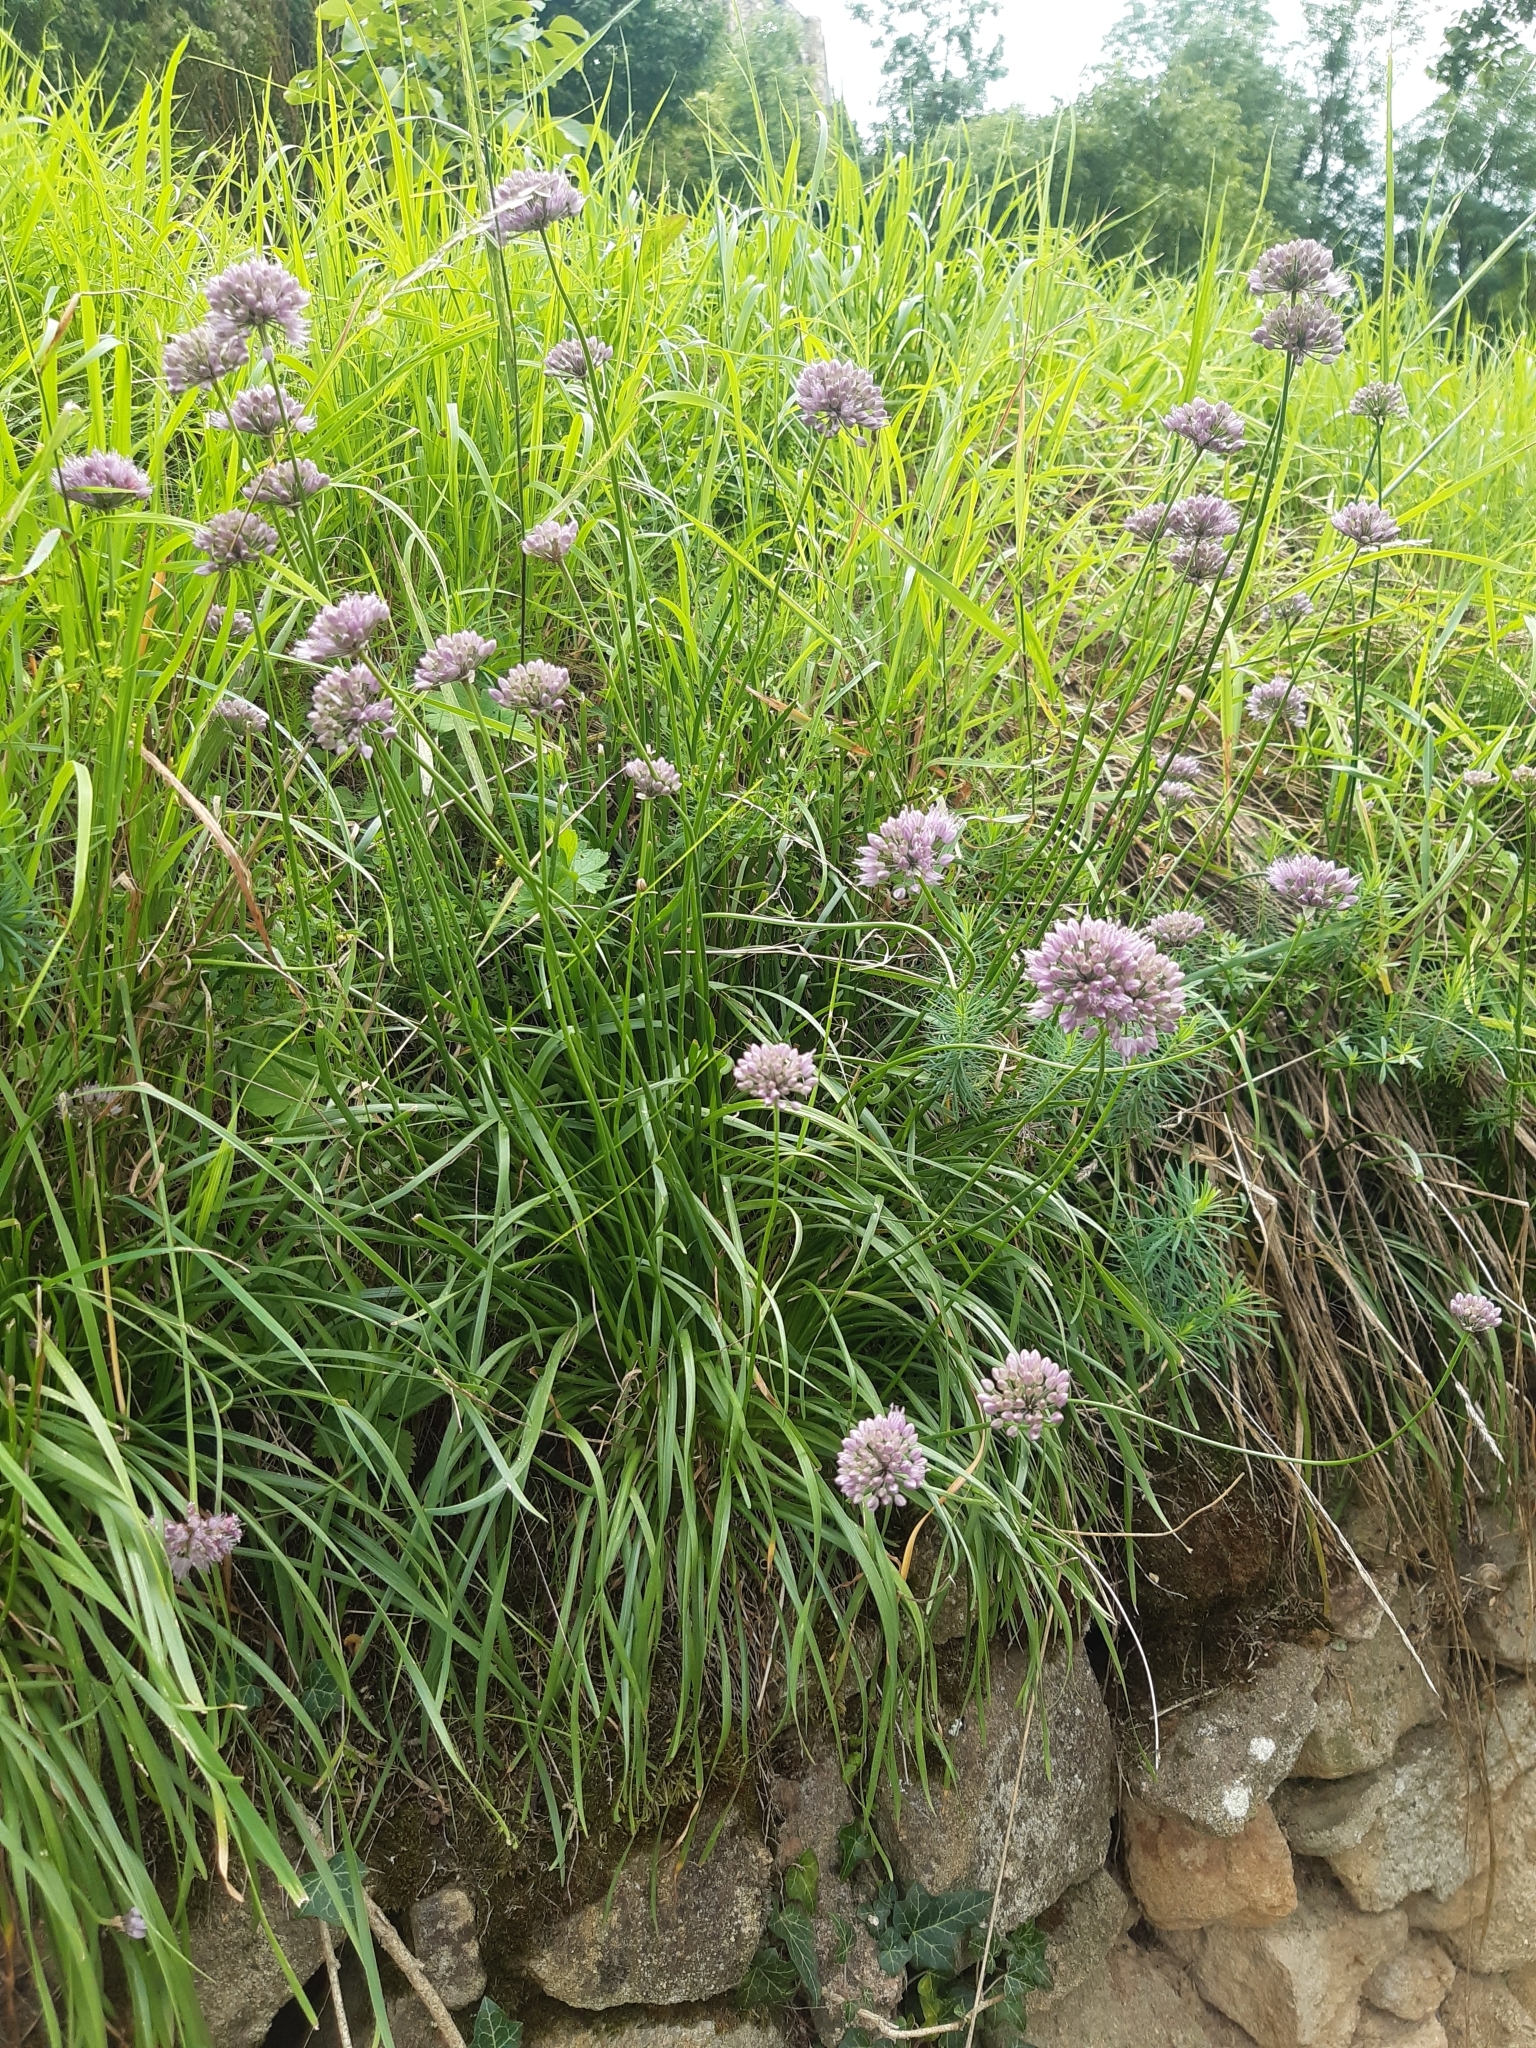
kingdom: Plantae
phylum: Tracheophyta
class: Liliopsida
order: Asparagales
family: Amaryllidaceae
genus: Allium
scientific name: Allium lusitanicum
